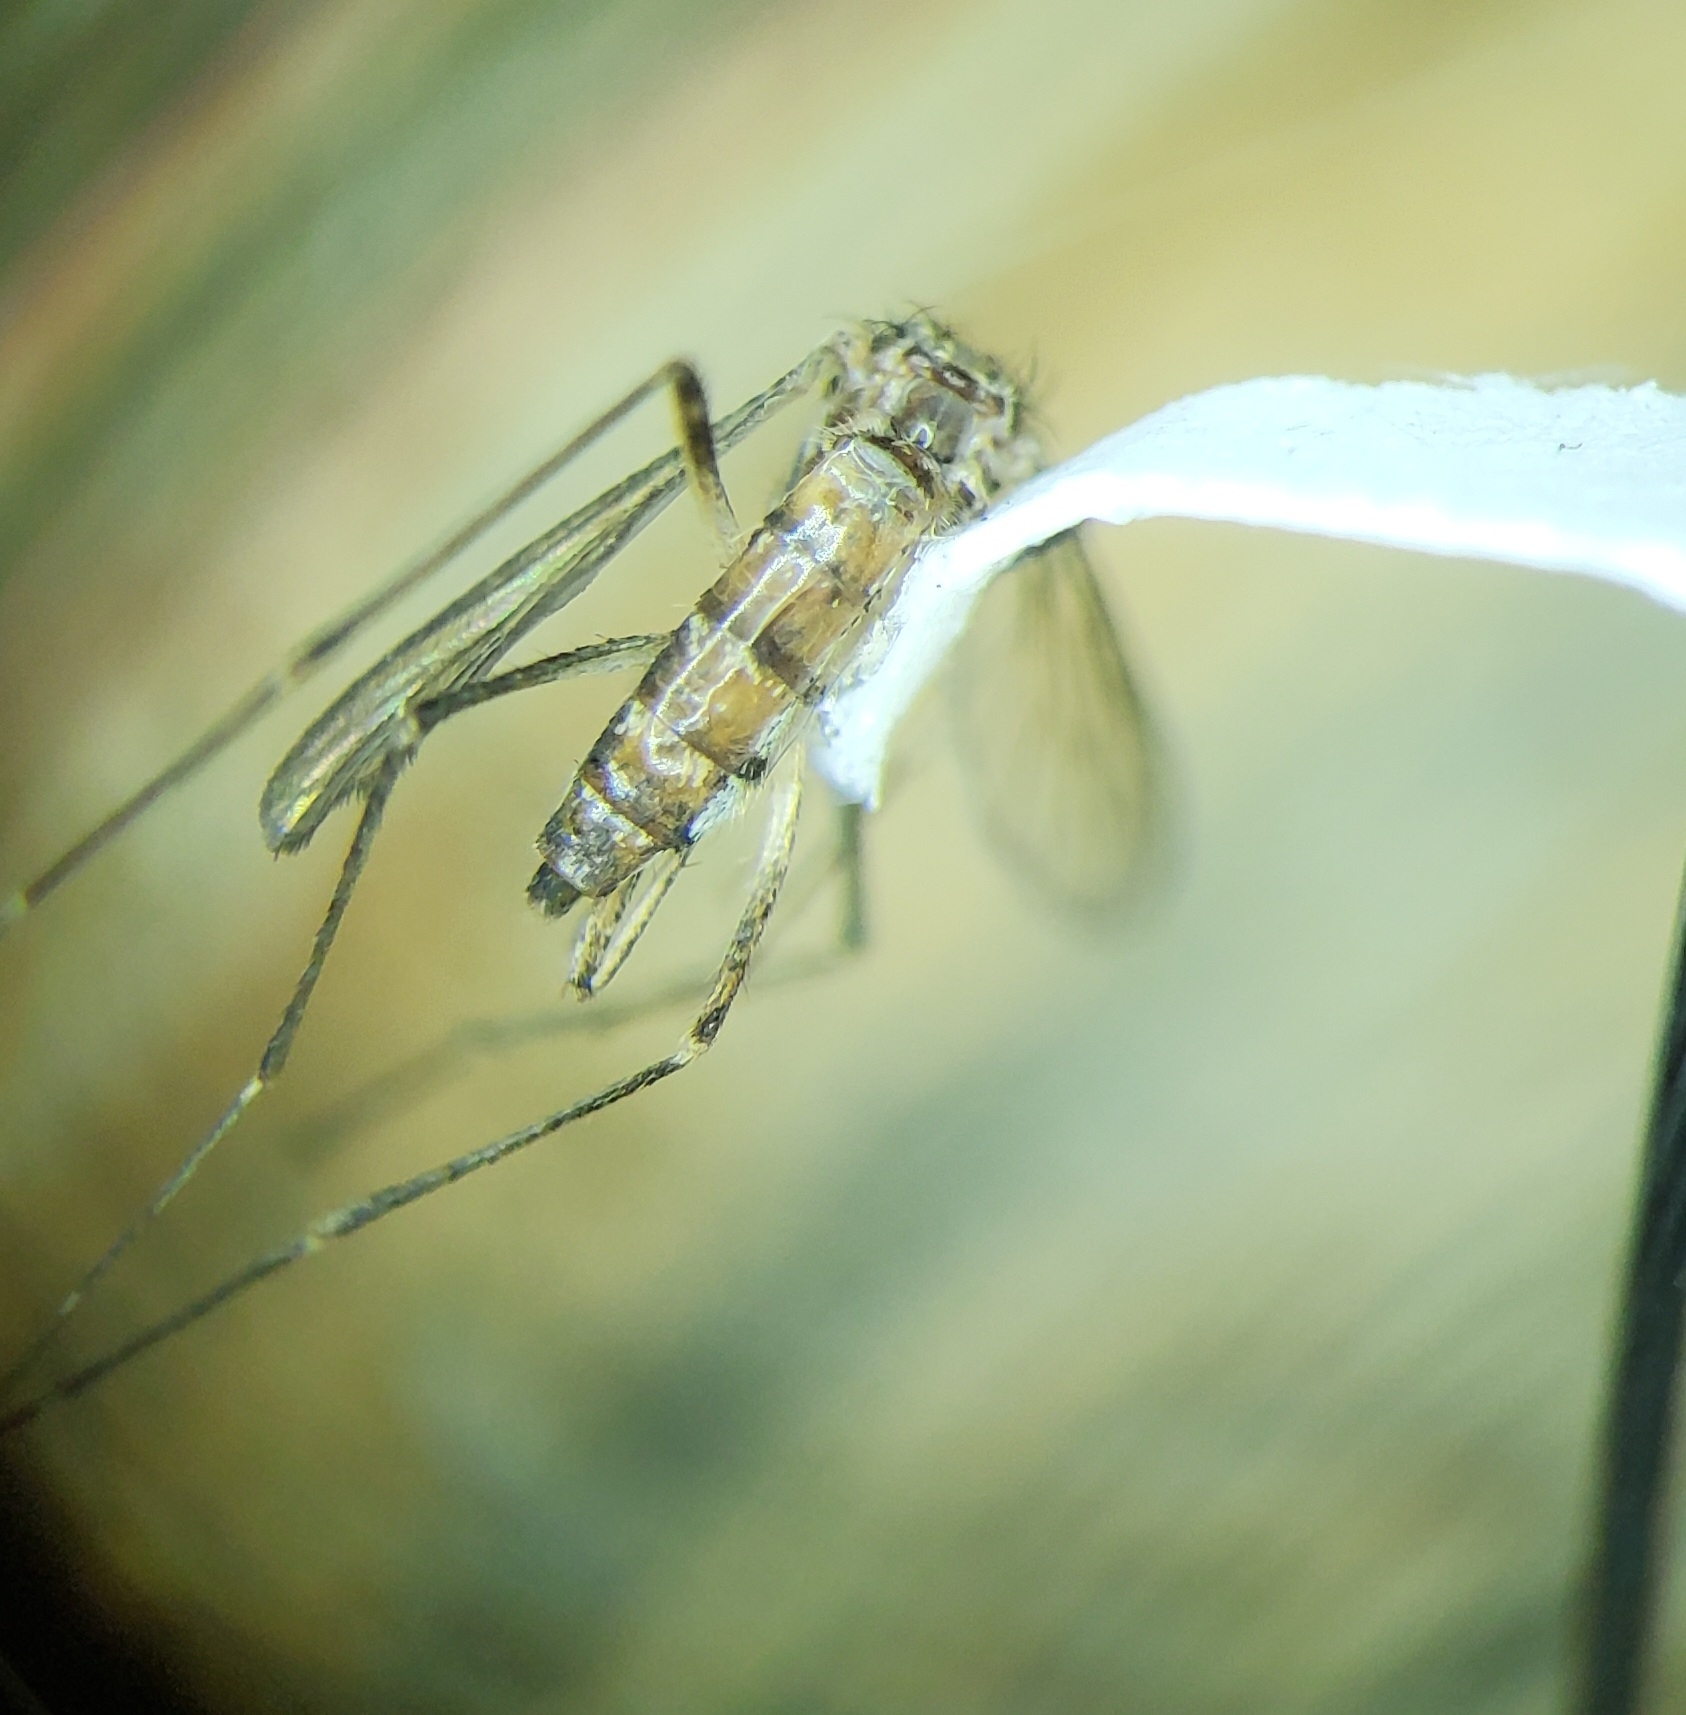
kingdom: Animalia
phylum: Arthropoda
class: Insecta
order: Diptera
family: Culicidae
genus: Aedes
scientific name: Aedes vexans
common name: Inland floodwater mosquito
